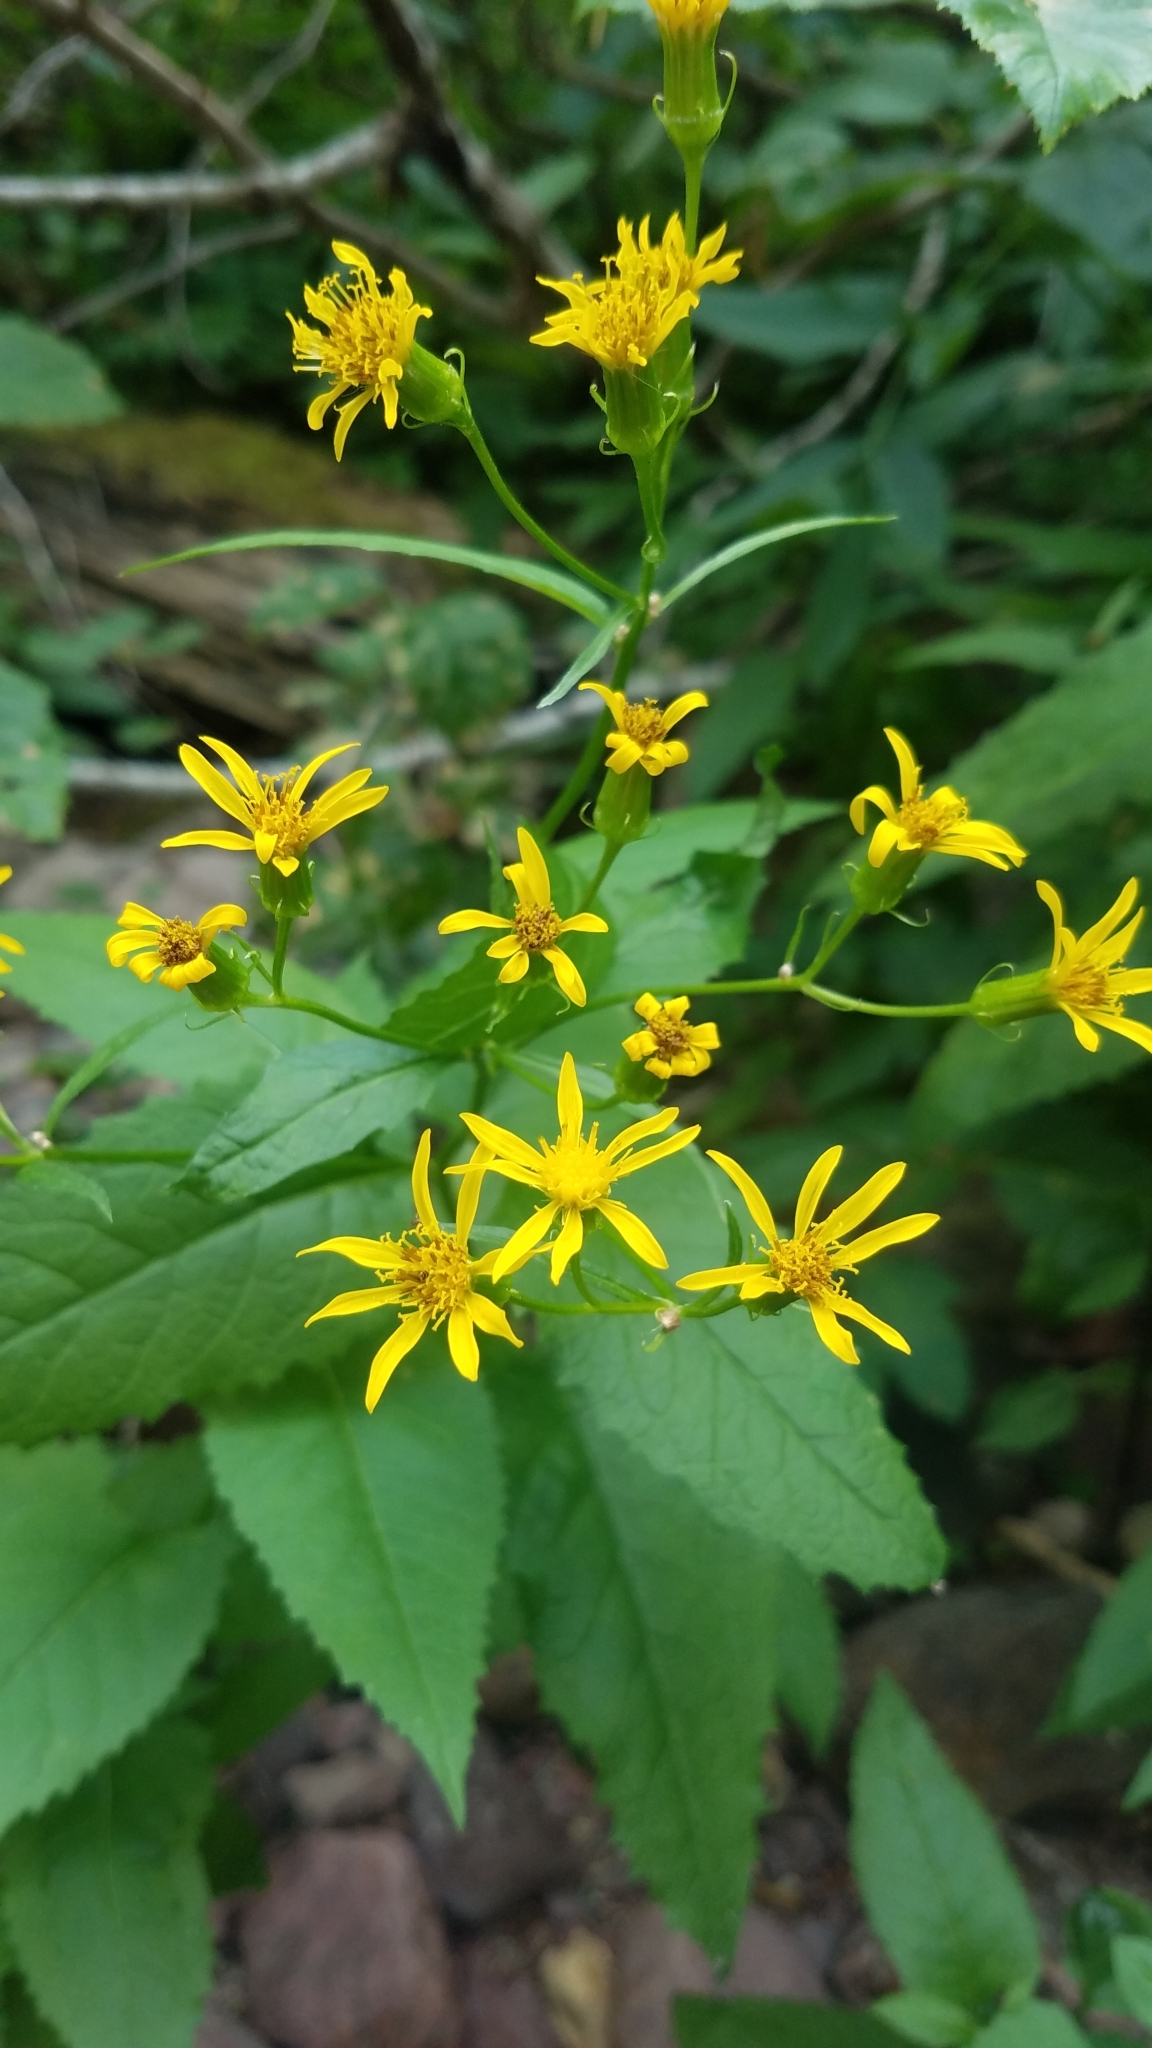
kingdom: Plantae
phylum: Tracheophyta
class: Magnoliopsida
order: Asterales
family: Asteraceae
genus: Senecio
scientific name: Senecio triangularis
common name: Arrowleaf butterweed
